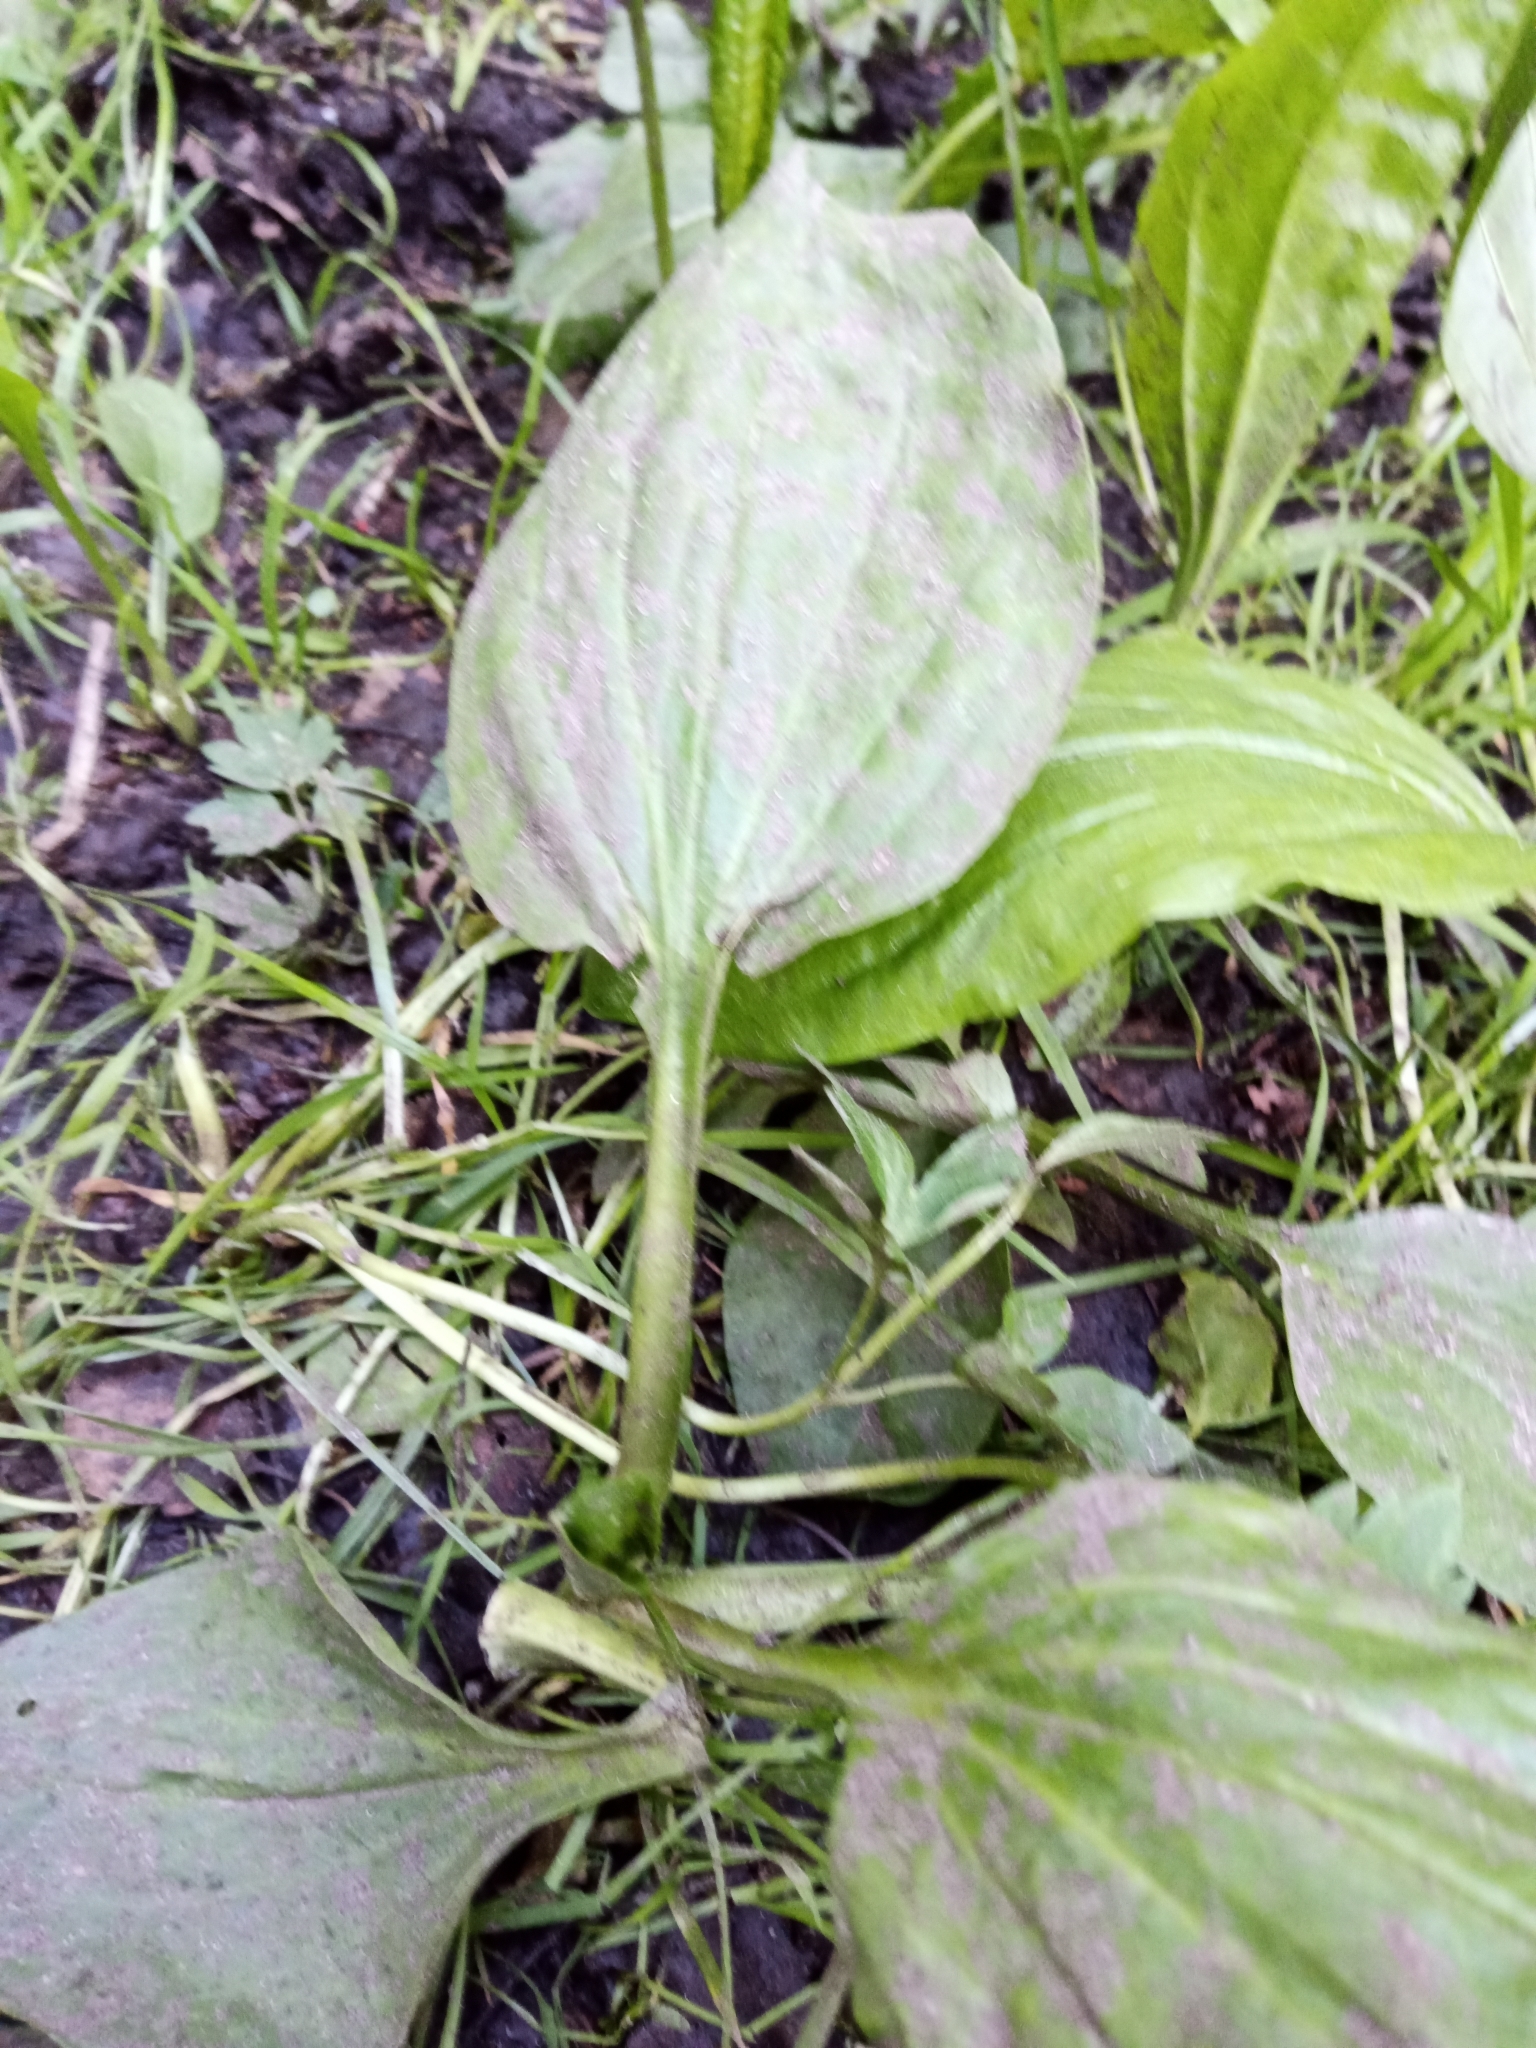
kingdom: Plantae
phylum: Tracheophyta
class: Magnoliopsida
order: Lamiales
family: Plantaginaceae
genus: Plantago
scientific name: Plantago major
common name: Common plantain
